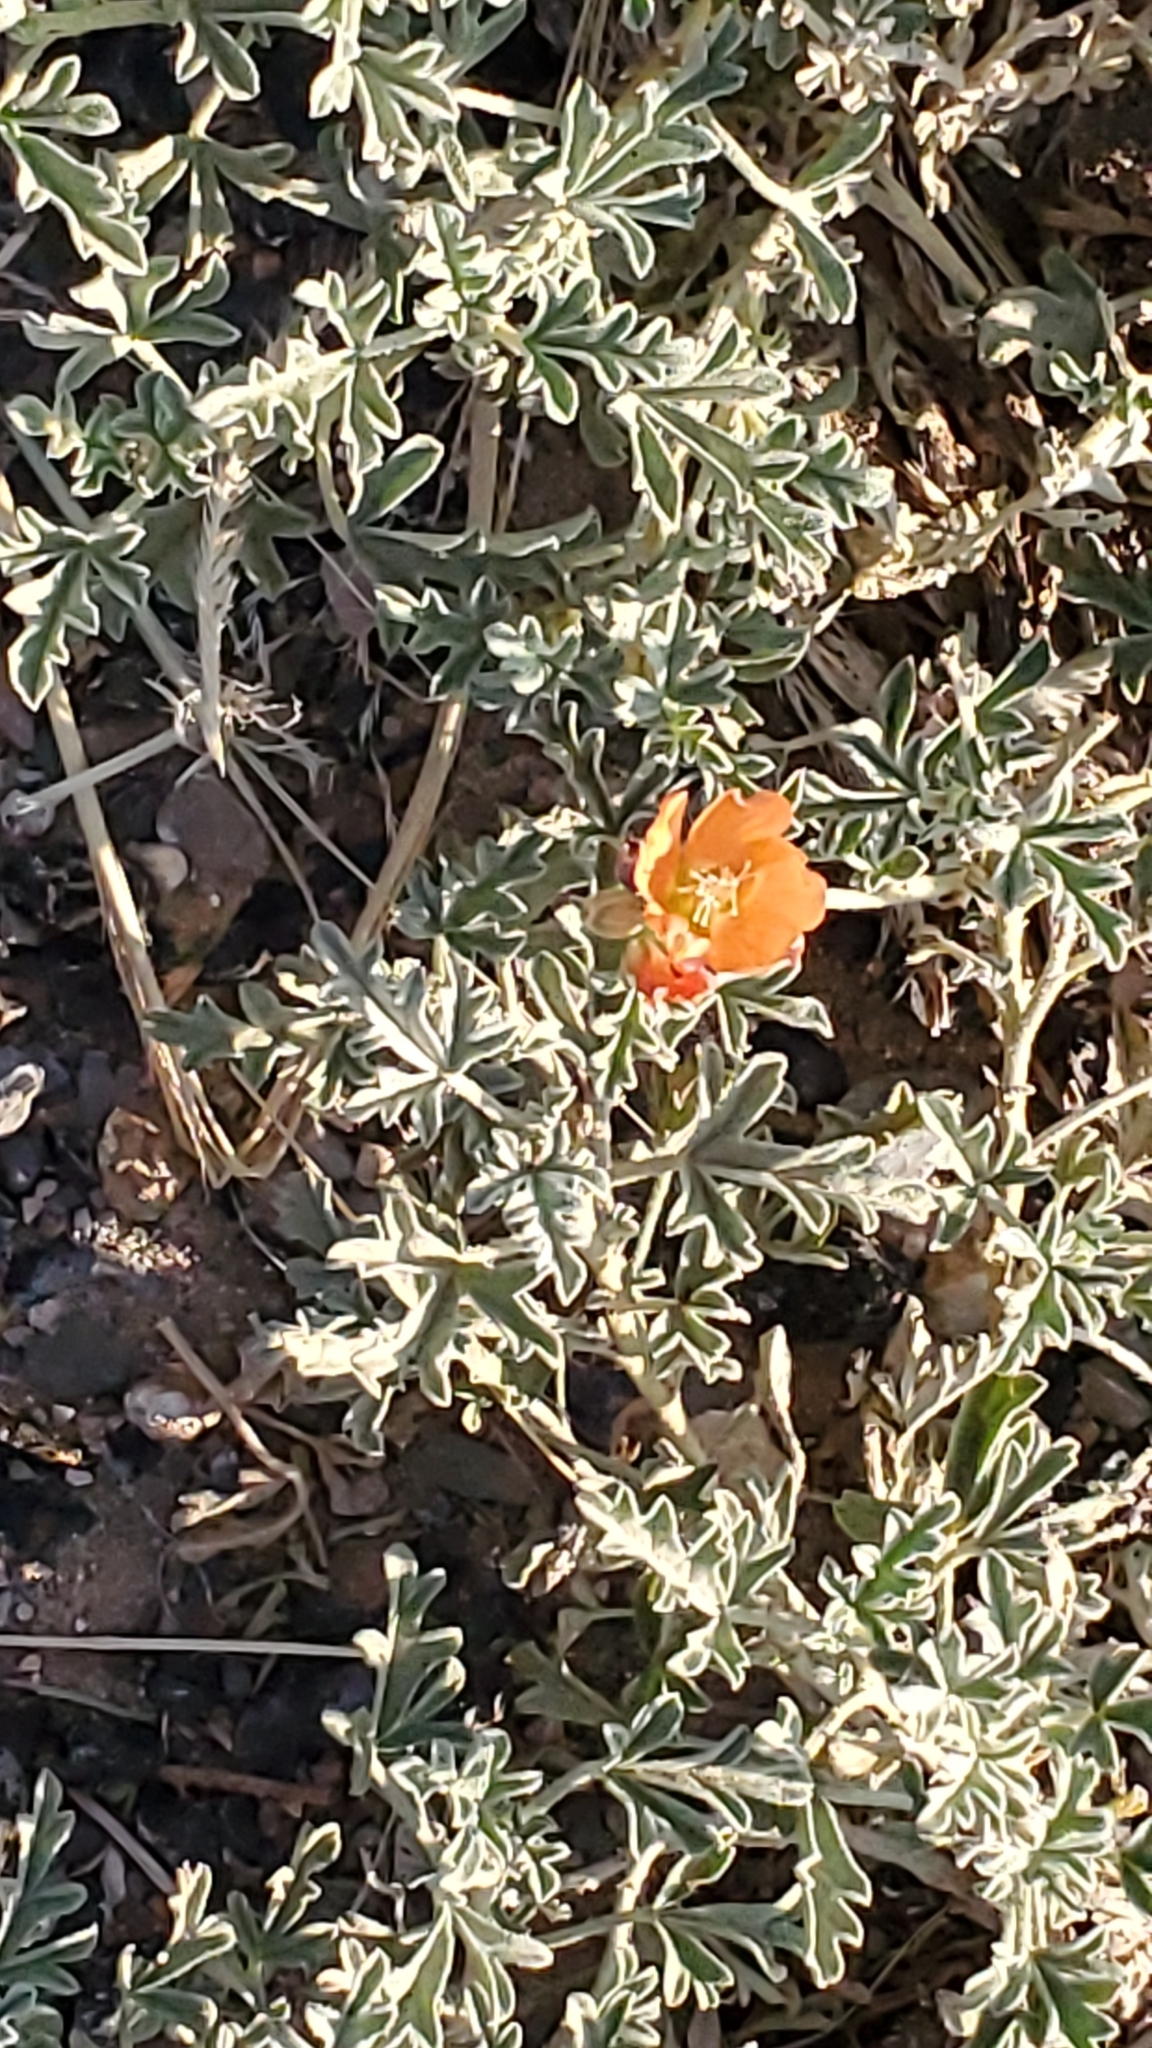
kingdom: Plantae
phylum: Tracheophyta
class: Magnoliopsida
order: Malvales
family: Malvaceae
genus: Sphaeralcea
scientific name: Sphaeralcea coccinea
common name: Moss-rose
